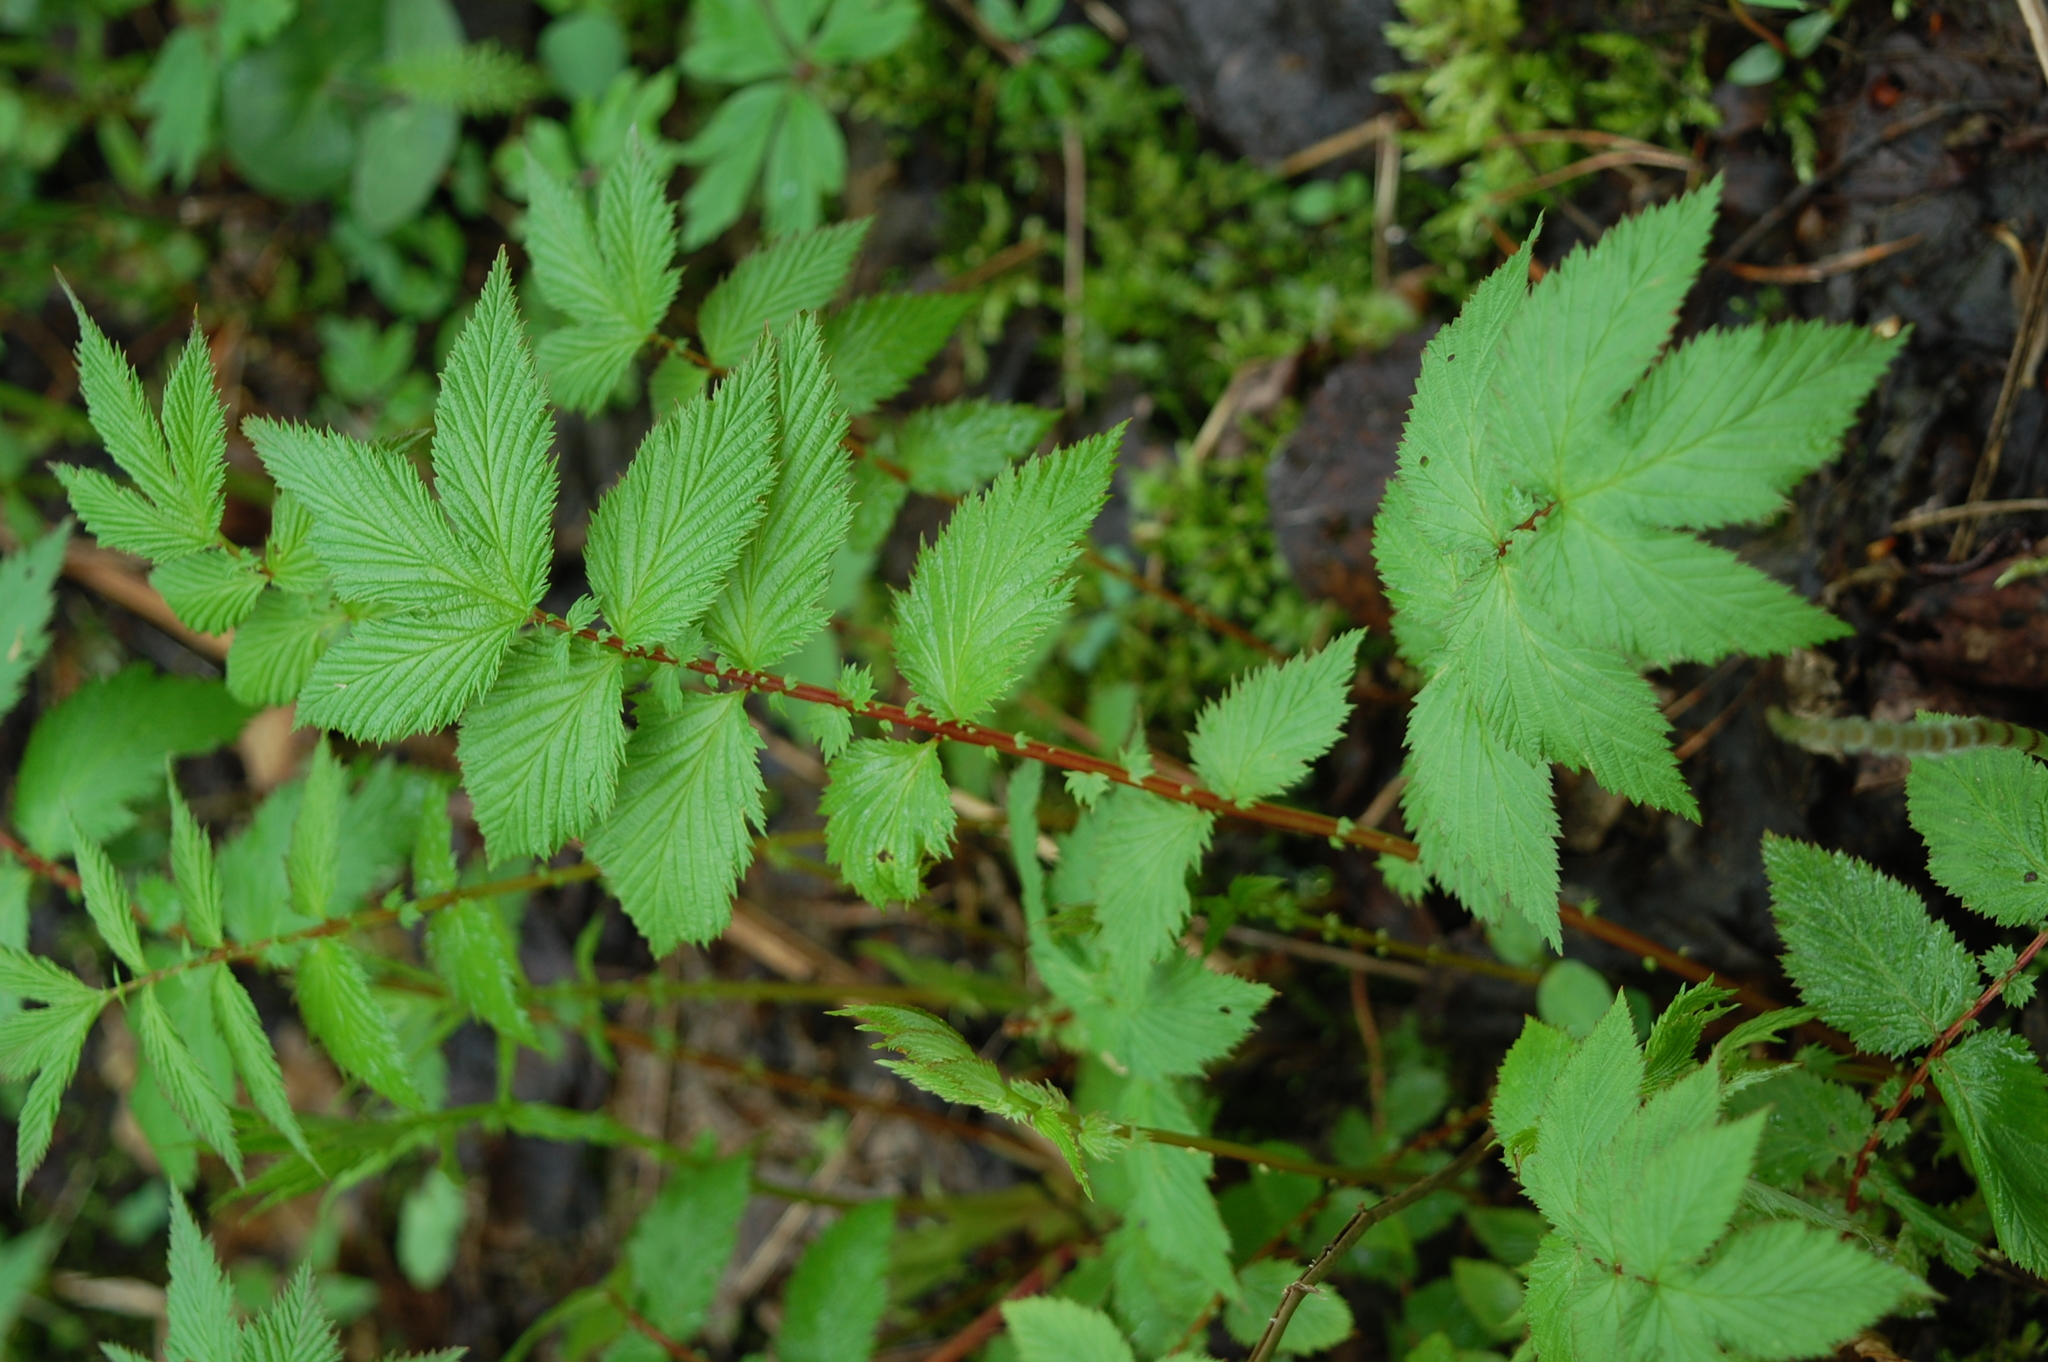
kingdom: Plantae
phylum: Tracheophyta
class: Magnoliopsida
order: Rosales
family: Rosaceae
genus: Filipendula
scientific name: Filipendula ulmaria
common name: Meadowsweet
